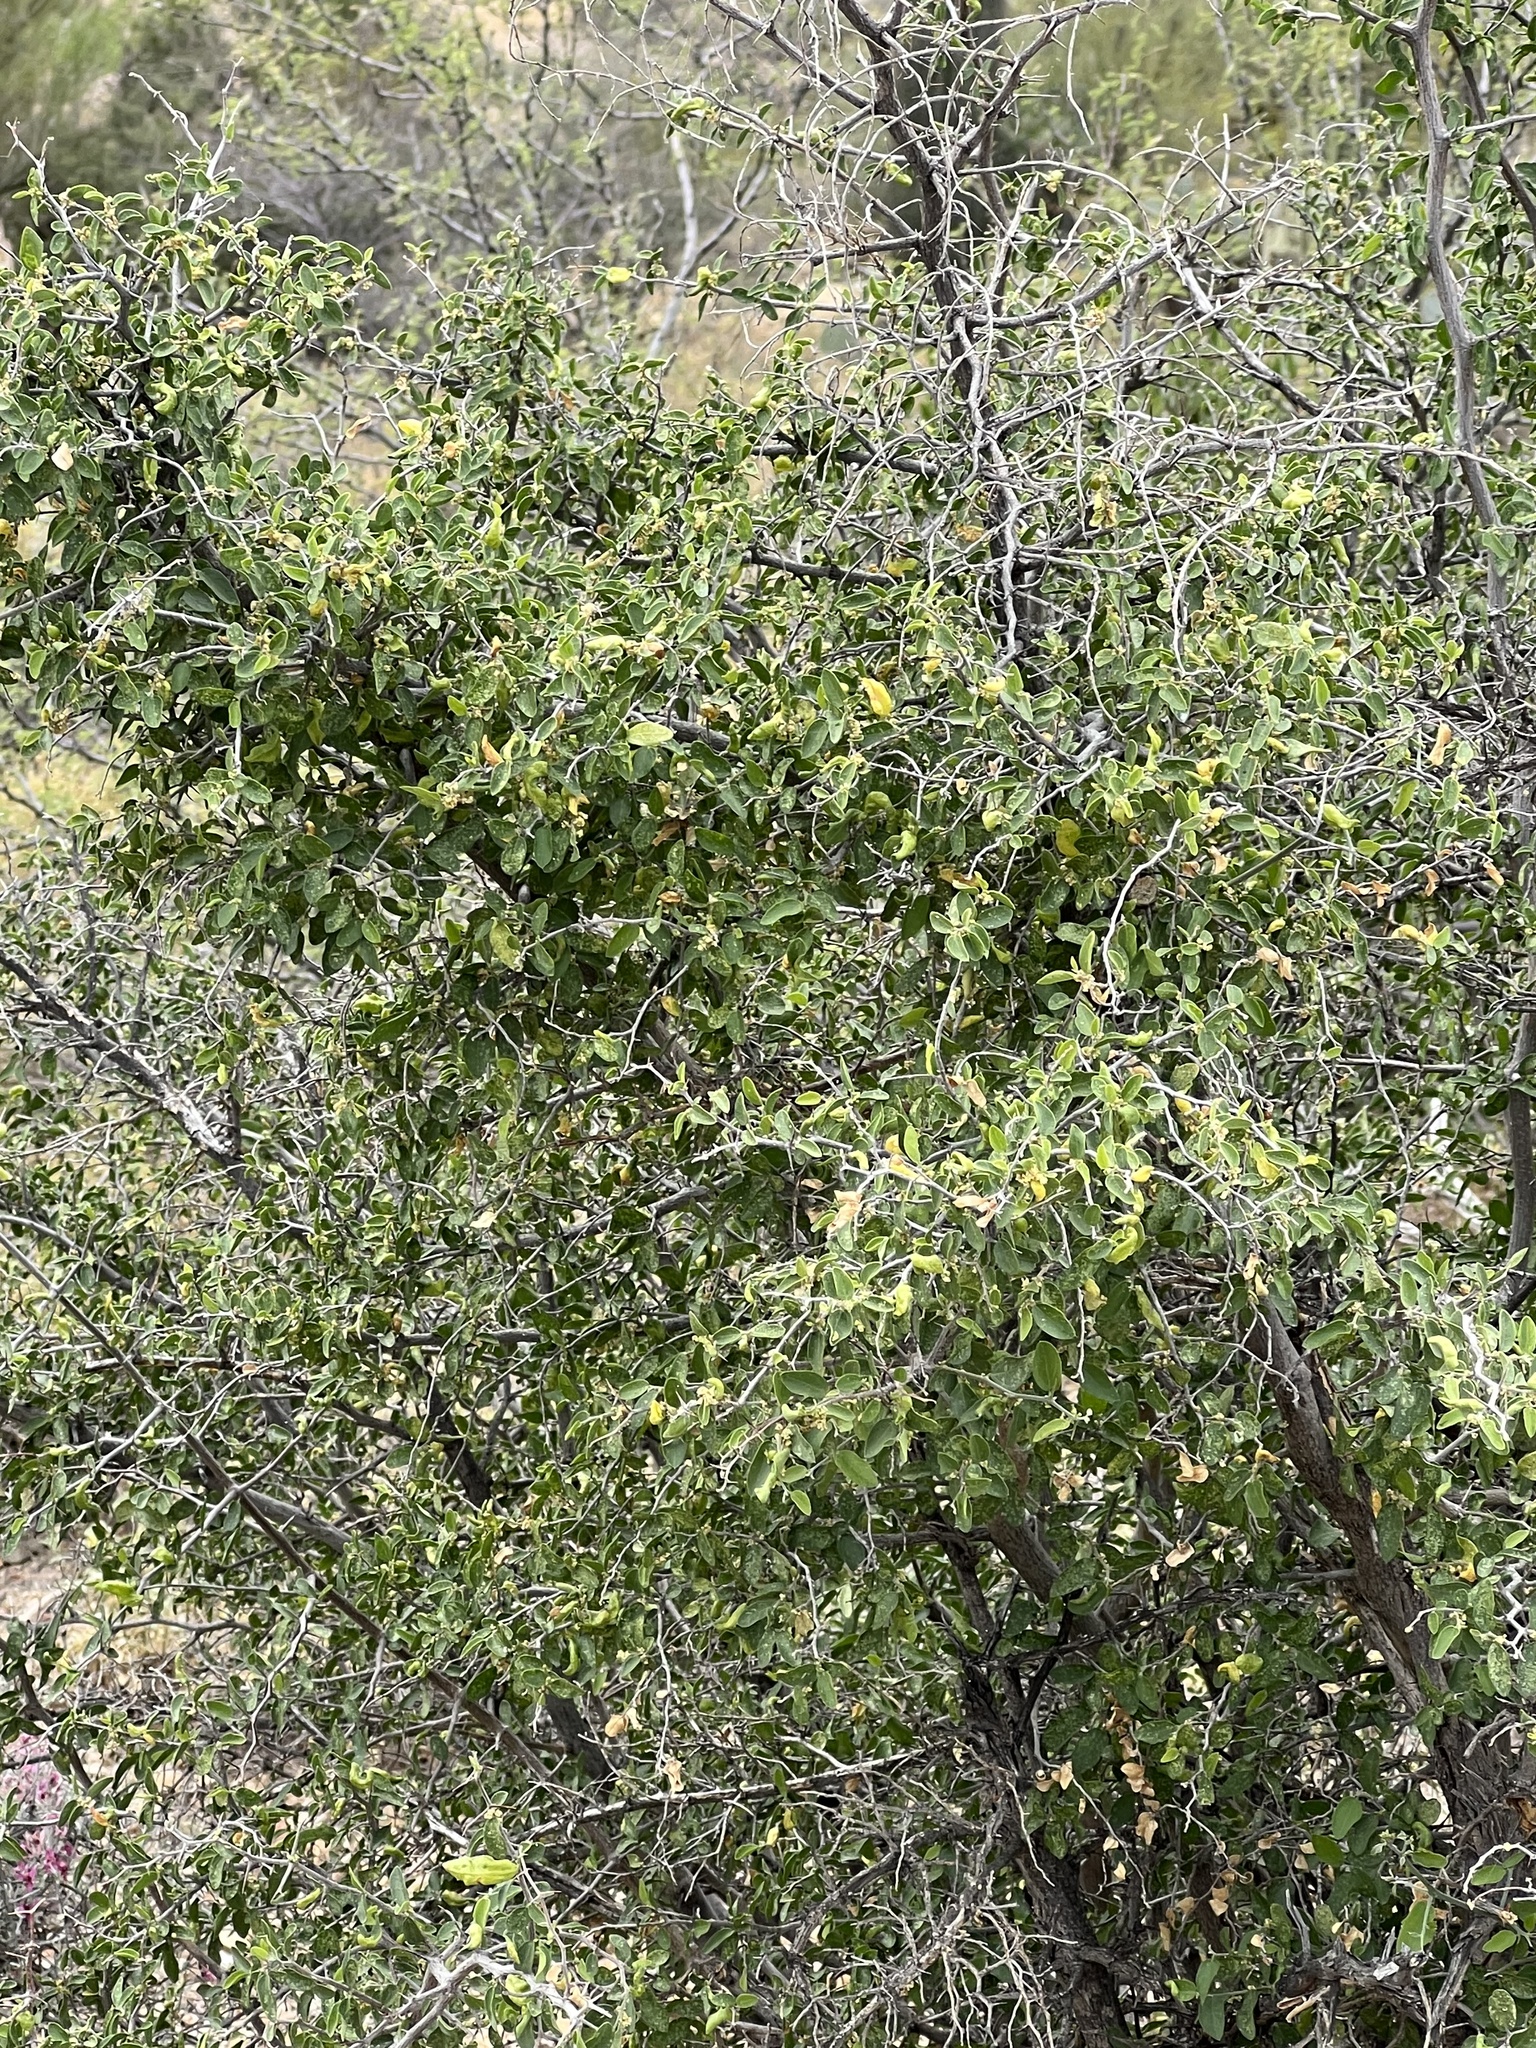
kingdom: Plantae
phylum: Tracheophyta
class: Magnoliopsida
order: Rosales
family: Cannabaceae
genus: Celtis
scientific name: Celtis pallida
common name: Desert hackberry
